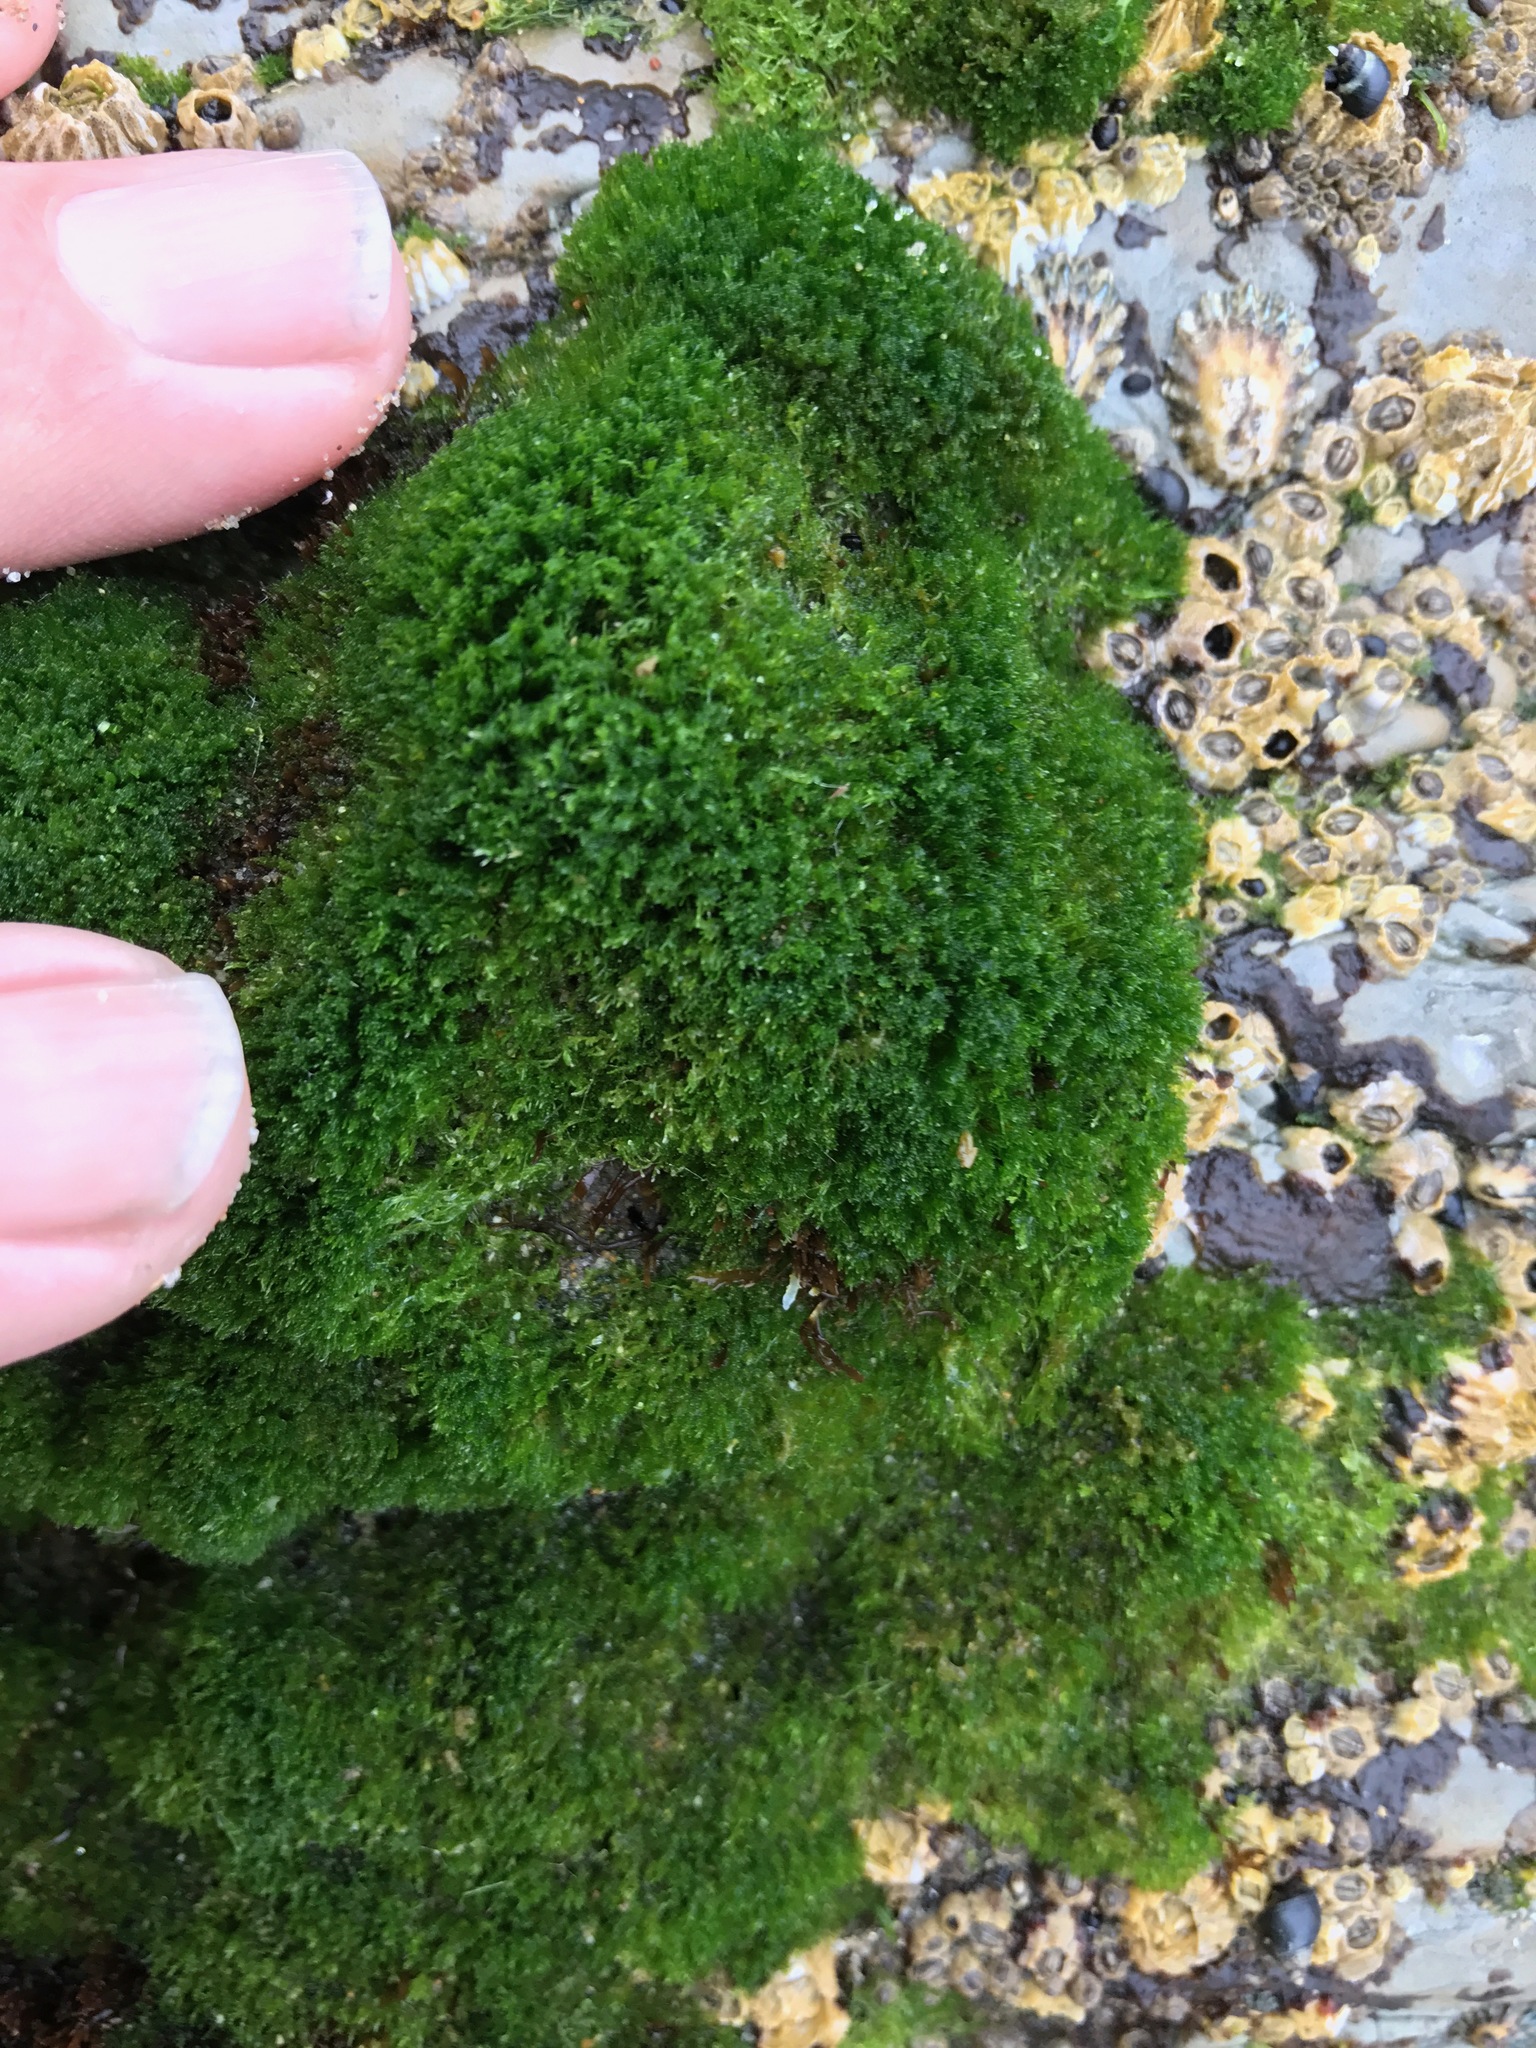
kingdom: Plantae
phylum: Chlorophyta
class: Ulvophyceae
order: Cladophorales
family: Cladophoraceae
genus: Cladophora
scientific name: Cladophora columbiana
